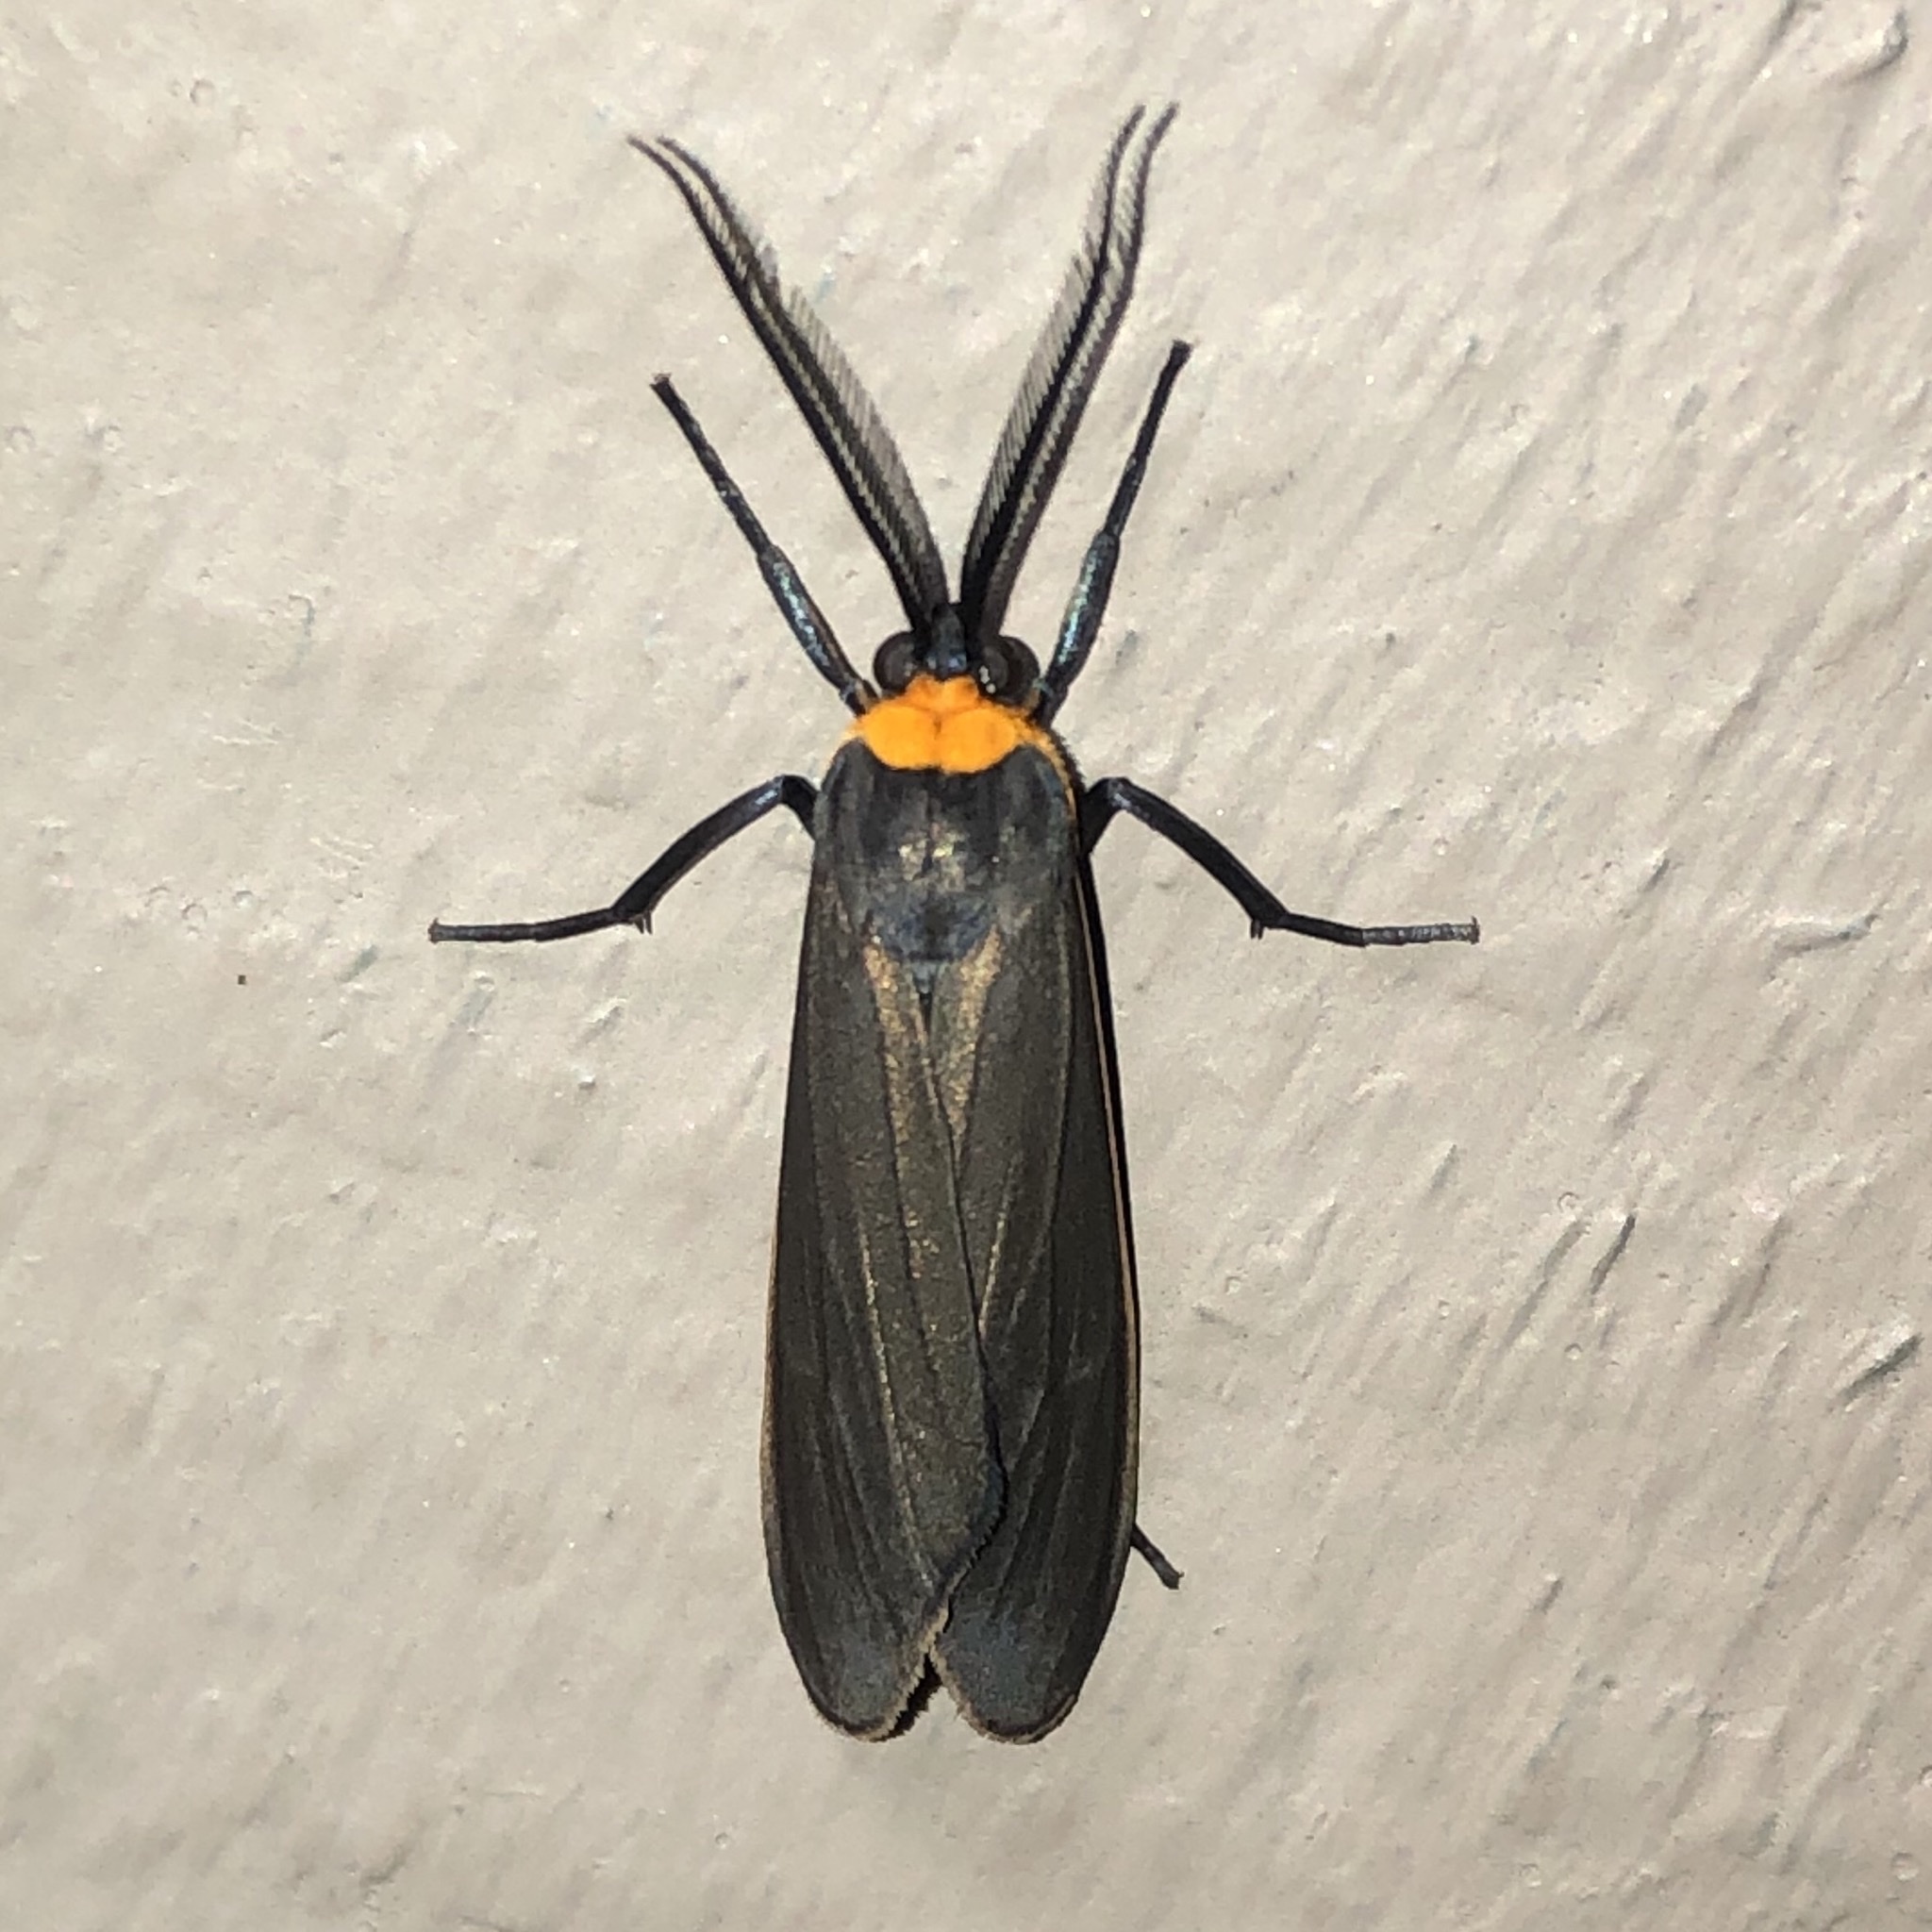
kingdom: Animalia
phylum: Arthropoda
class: Insecta
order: Lepidoptera
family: Erebidae
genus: Cisseps
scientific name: Cisseps fulvicollis
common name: Yellow-collared scape moth
